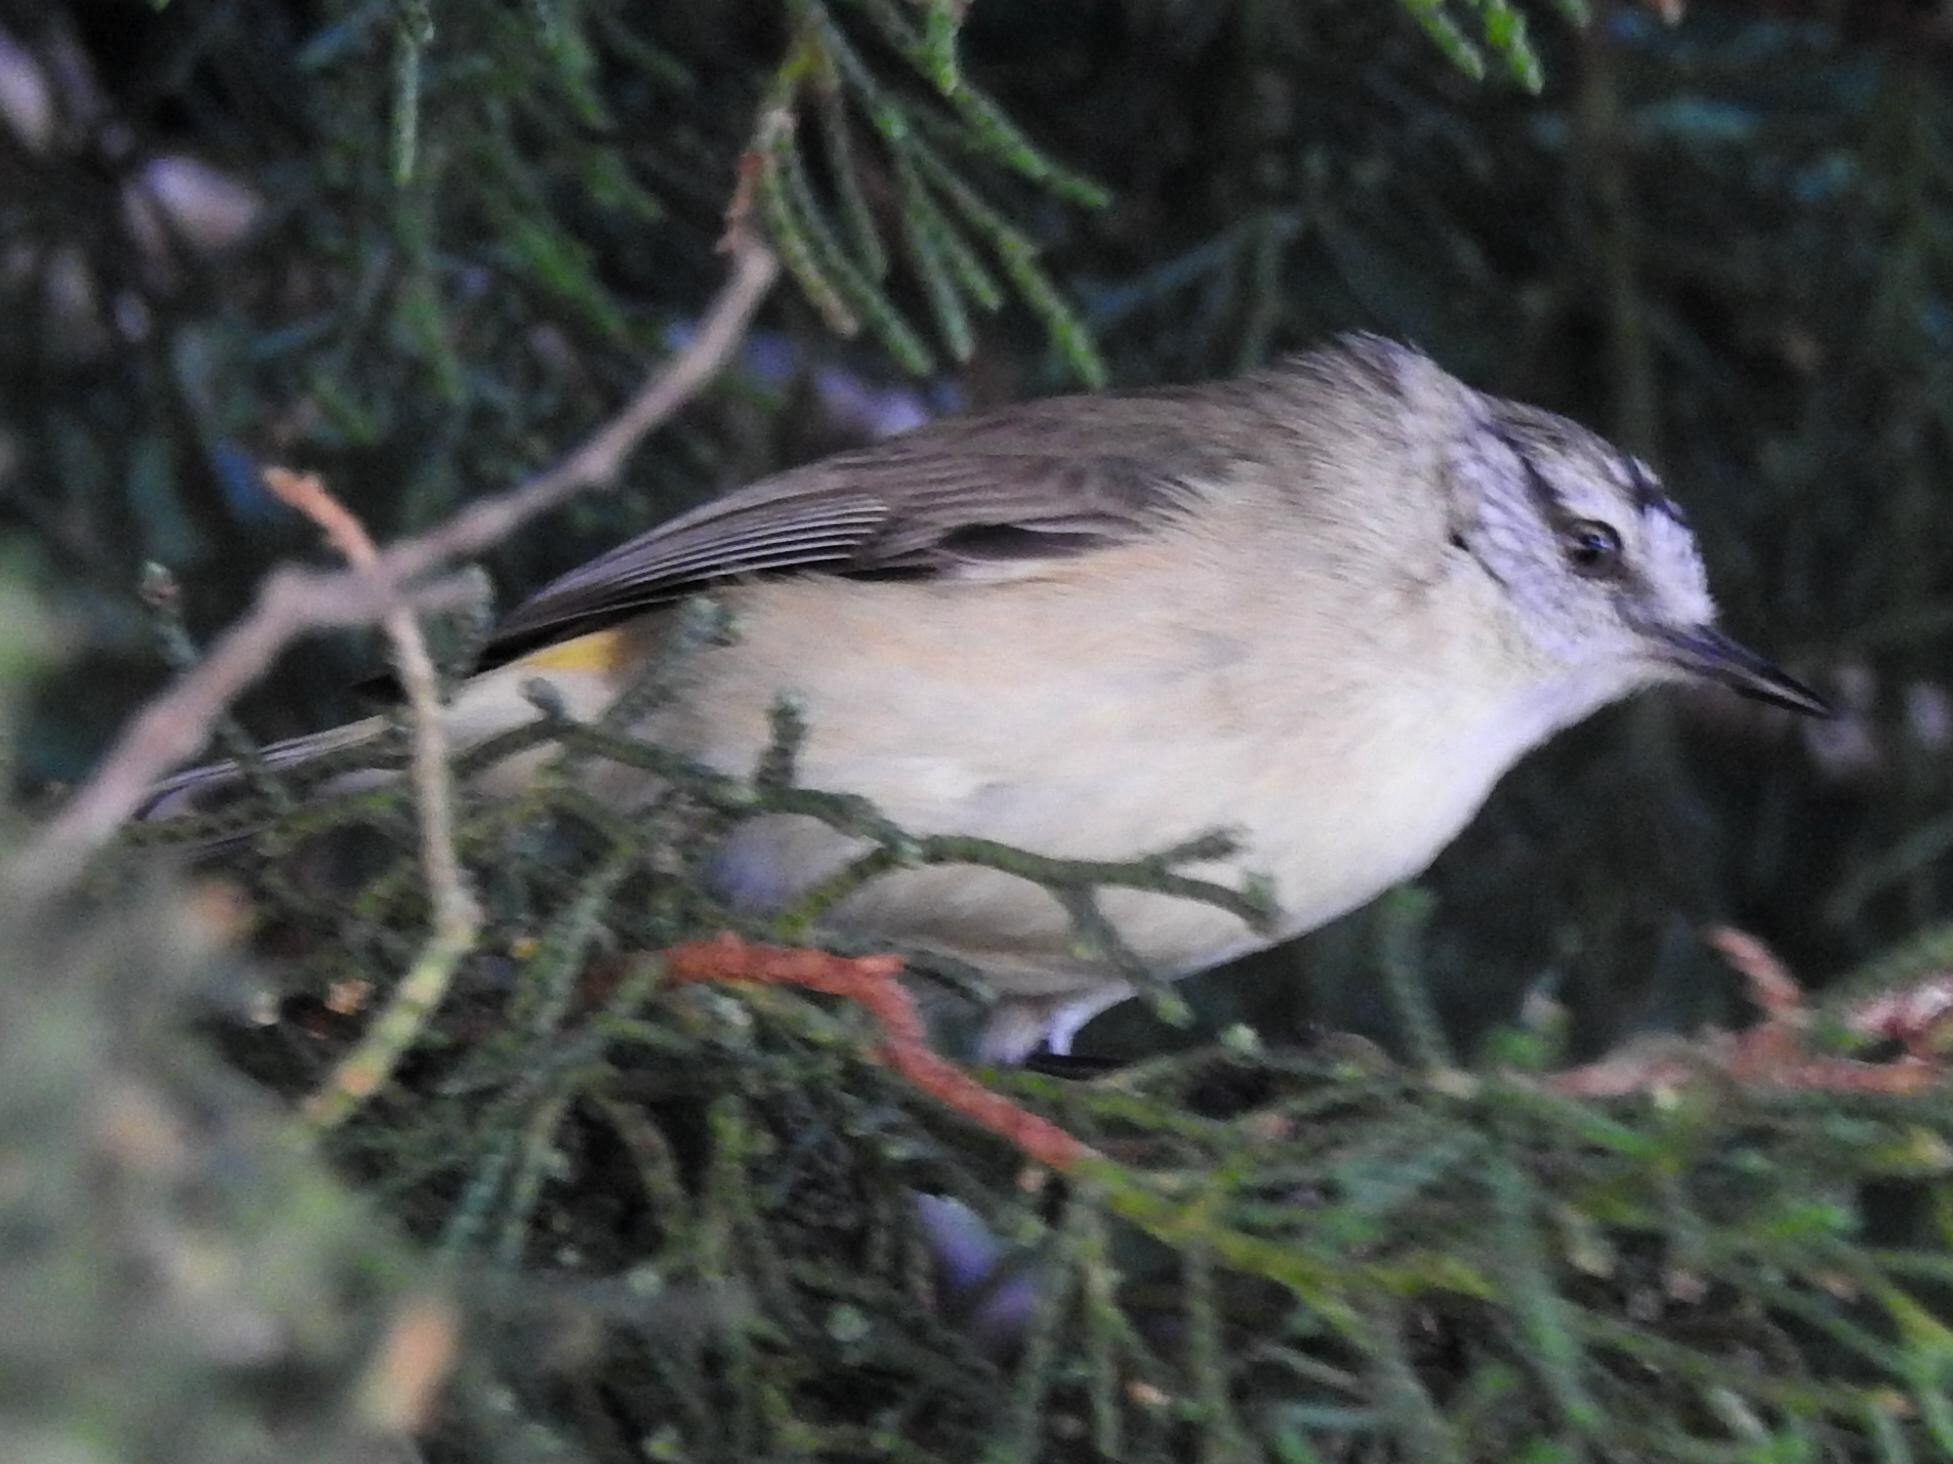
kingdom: Animalia
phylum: Chordata
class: Aves
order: Passeriformes
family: Acanthizidae
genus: Acanthiza
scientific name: Acanthiza chrysorrhoa
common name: Yellow-rumped thornbill
